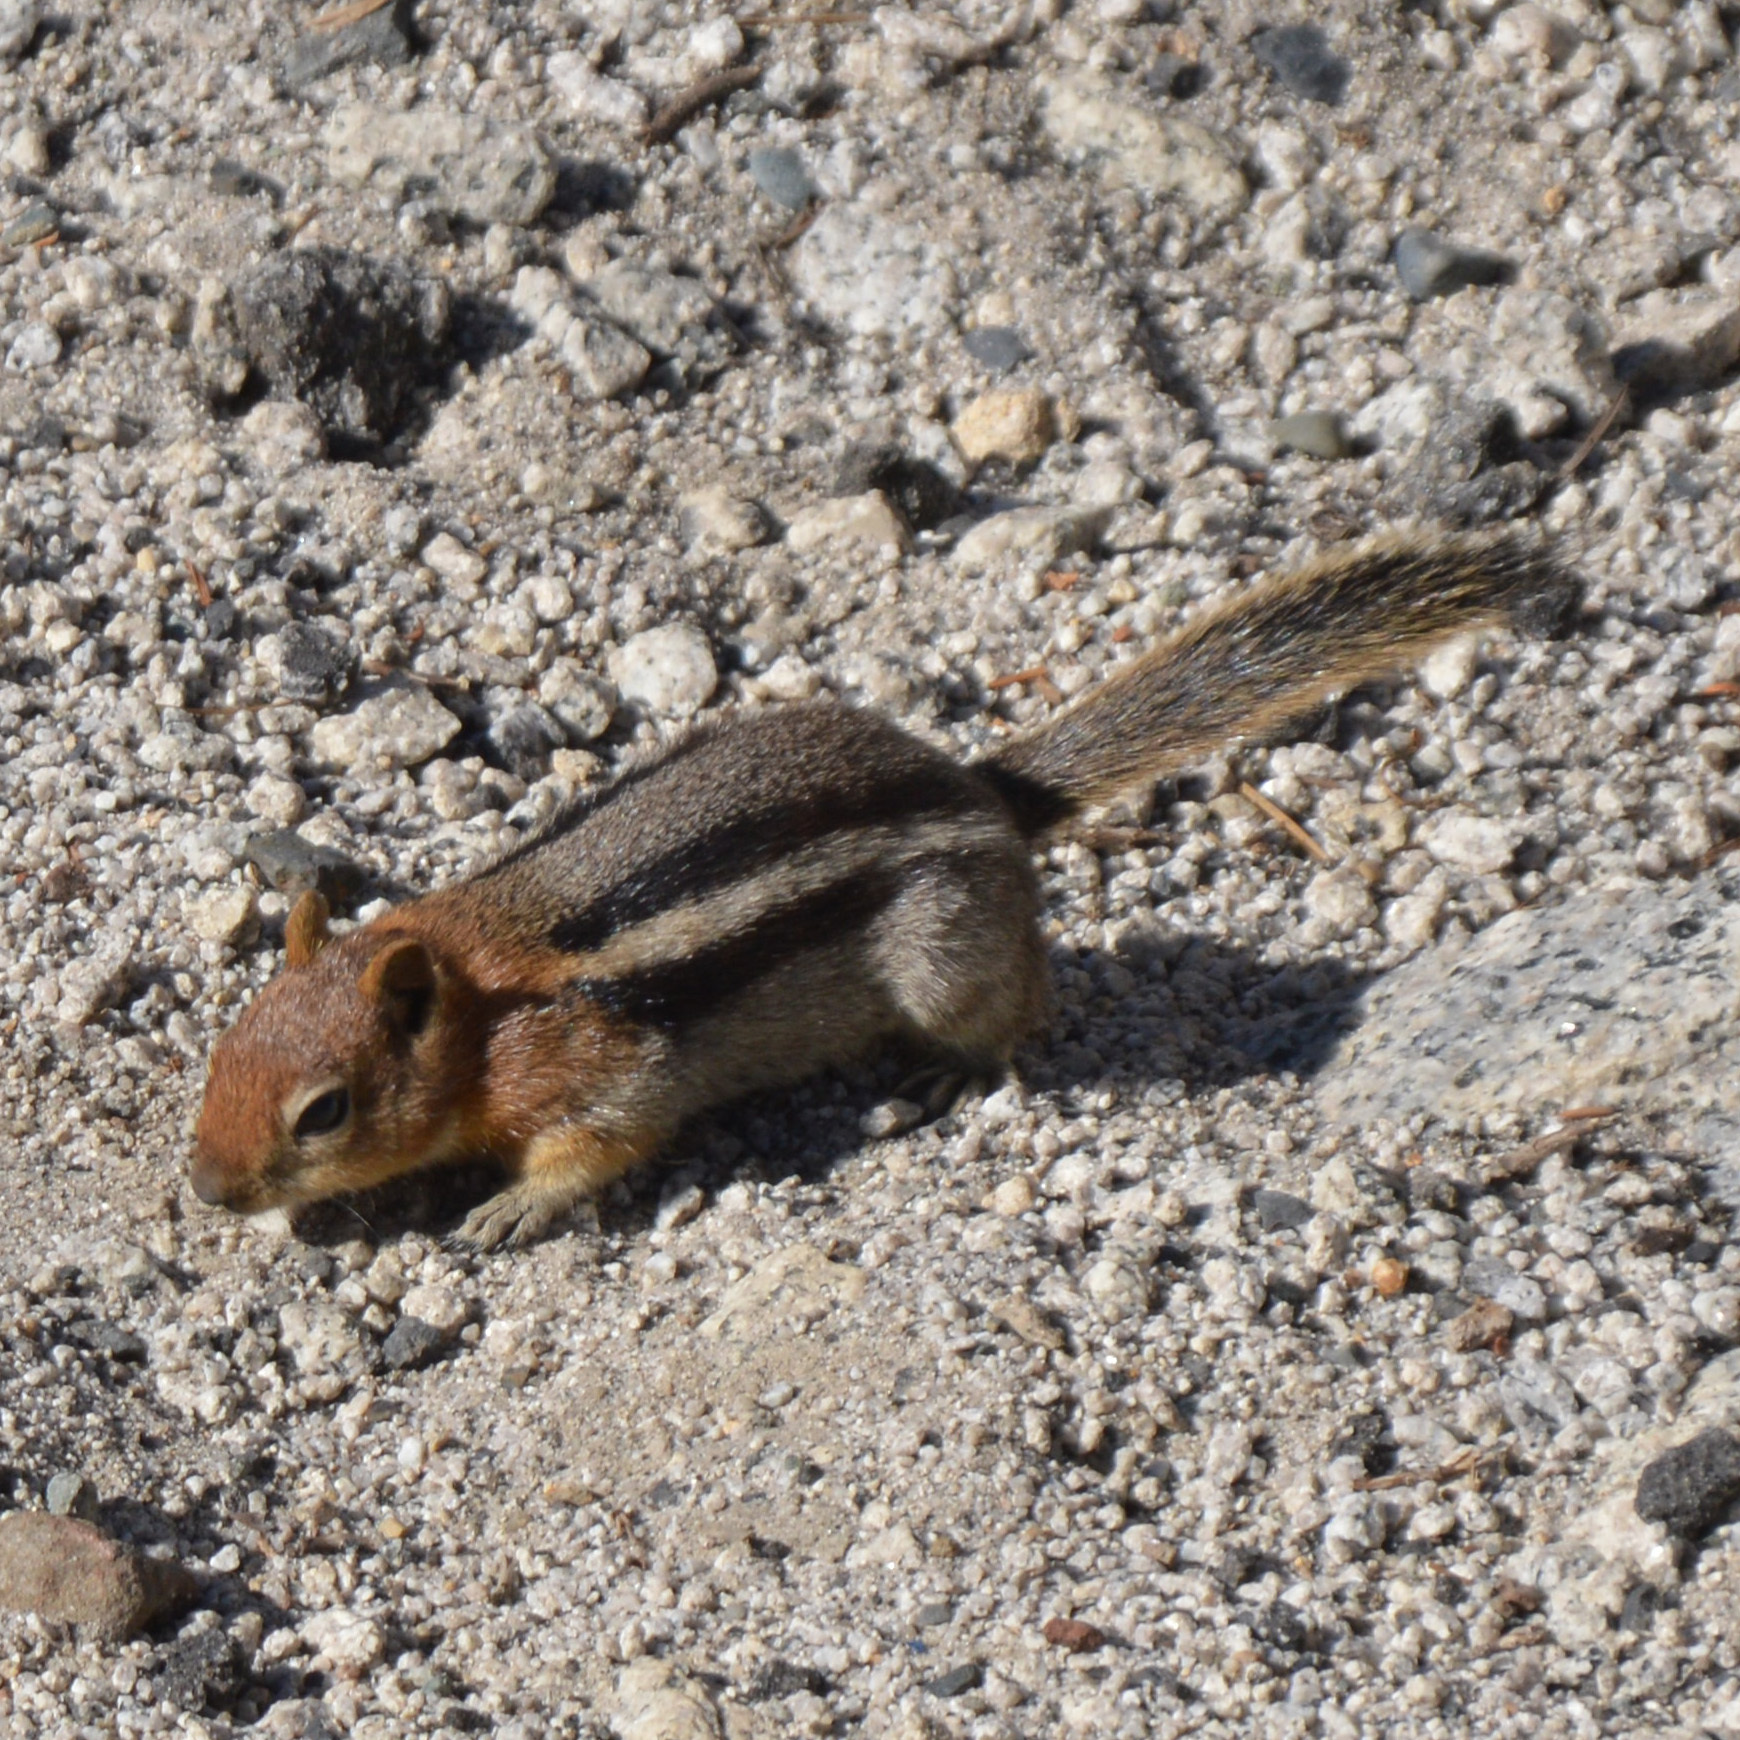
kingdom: Animalia
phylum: Chordata
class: Mammalia
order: Rodentia
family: Sciuridae
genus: Callospermophilus
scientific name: Callospermophilus lateralis
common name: Golden-mantled ground squirrel
